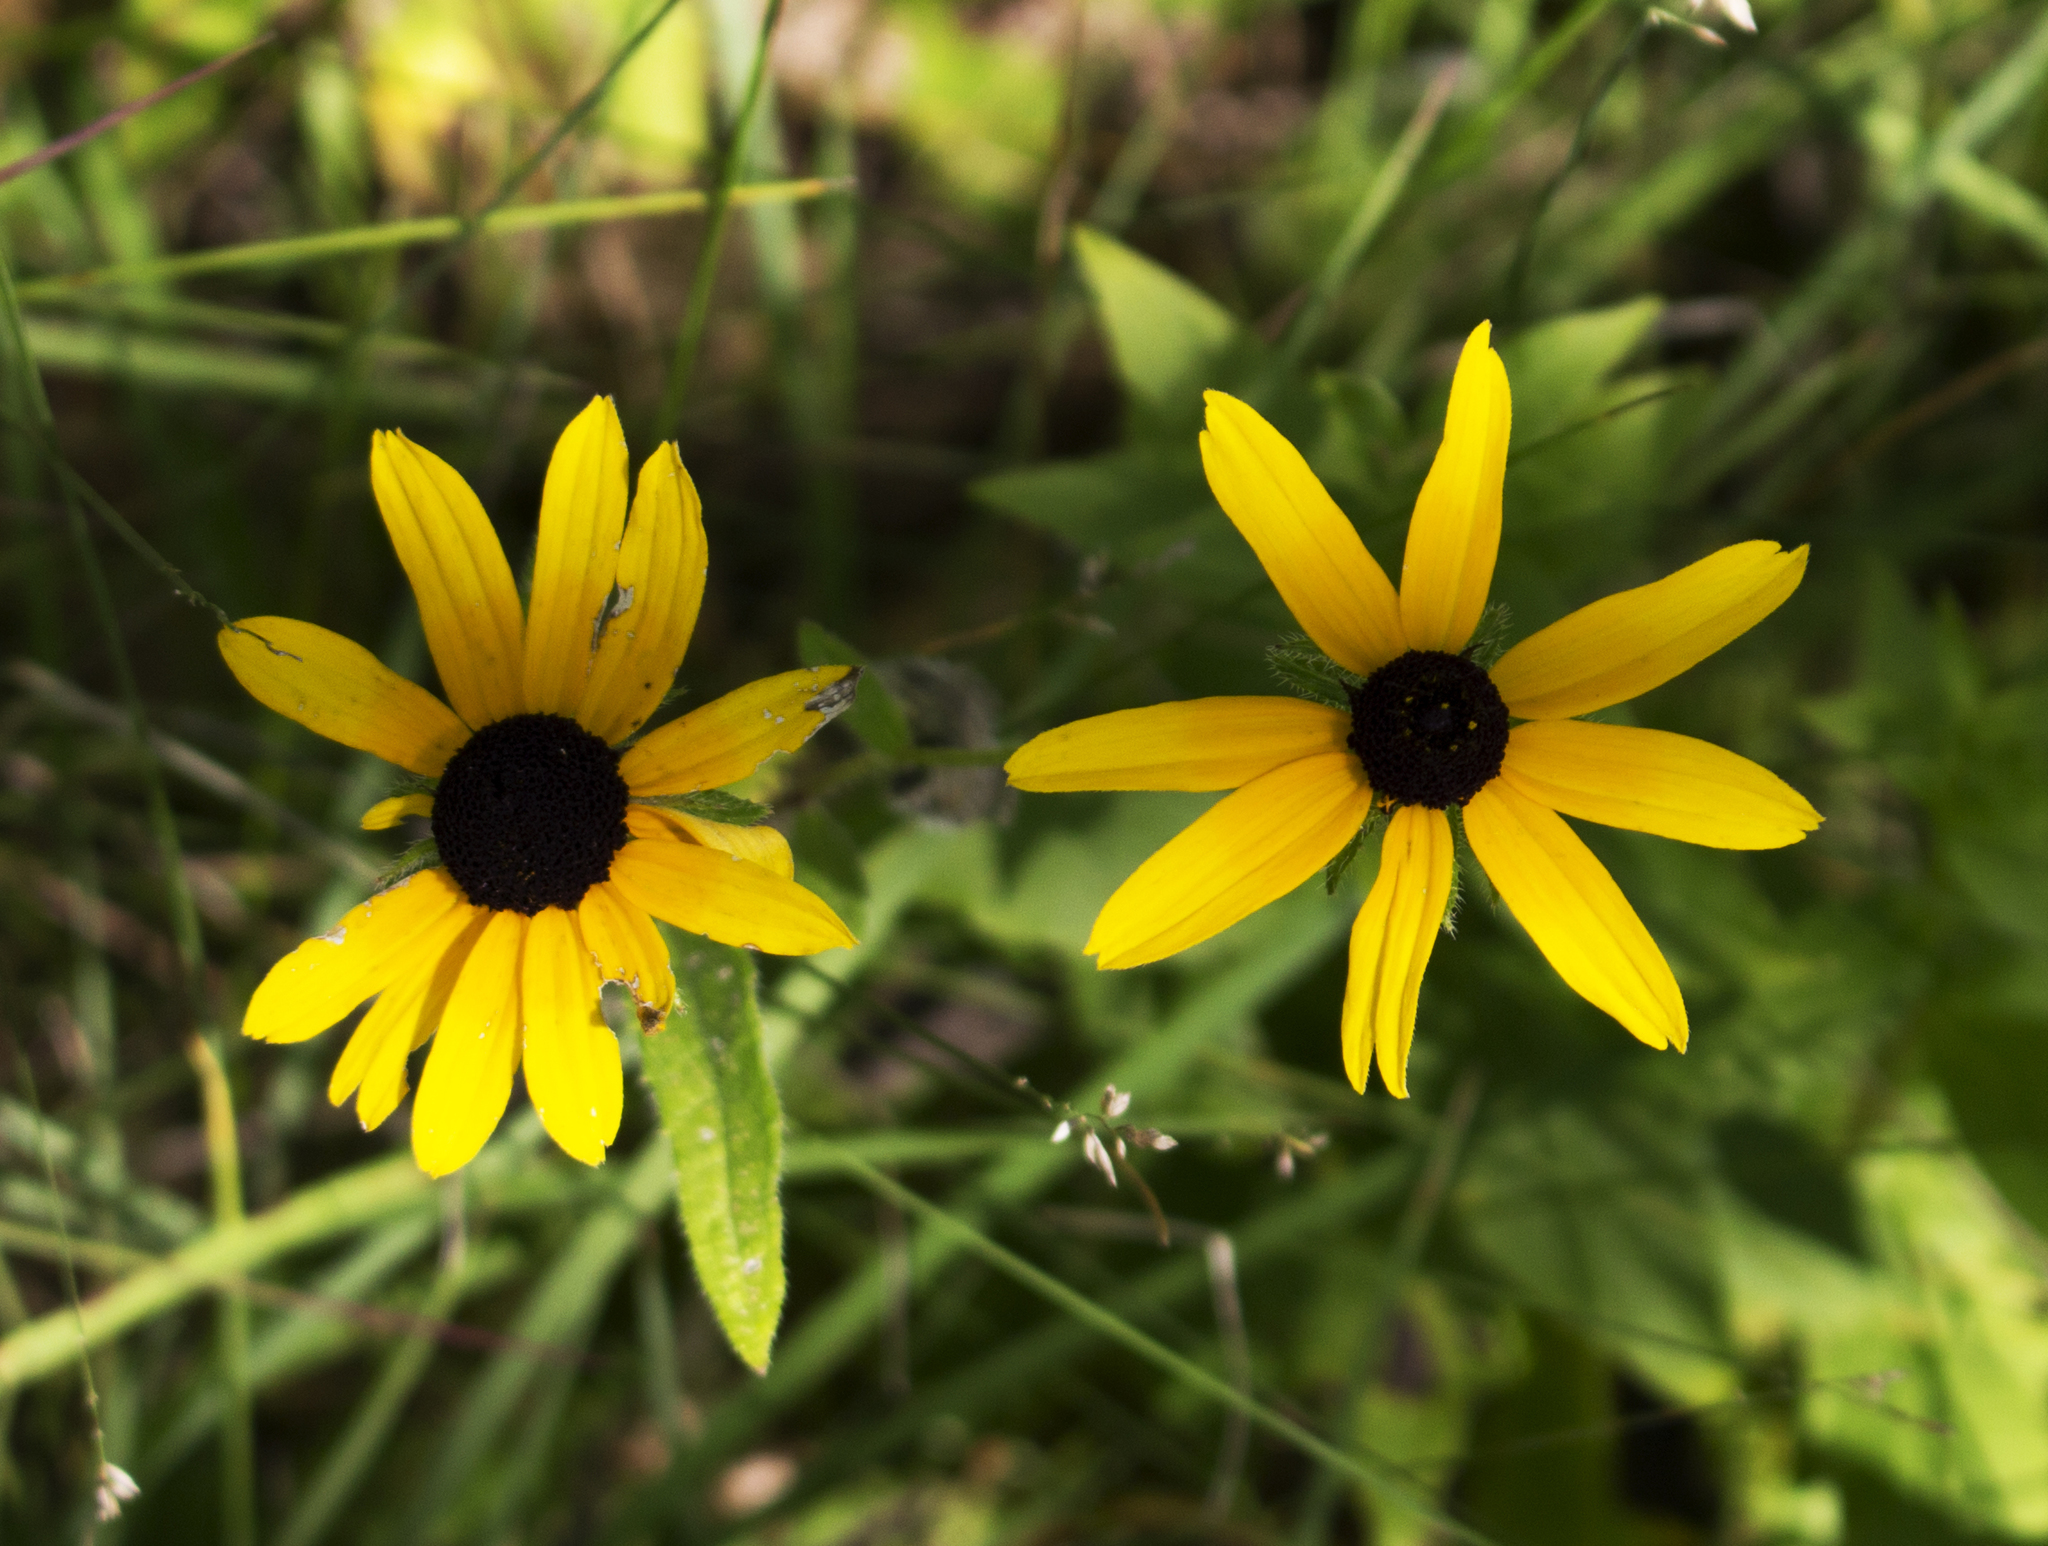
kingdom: Plantae
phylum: Tracheophyta
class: Magnoliopsida
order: Asterales
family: Asteraceae
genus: Rudbeckia
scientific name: Rudbeckia hirta
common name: Black-eyed-susan
